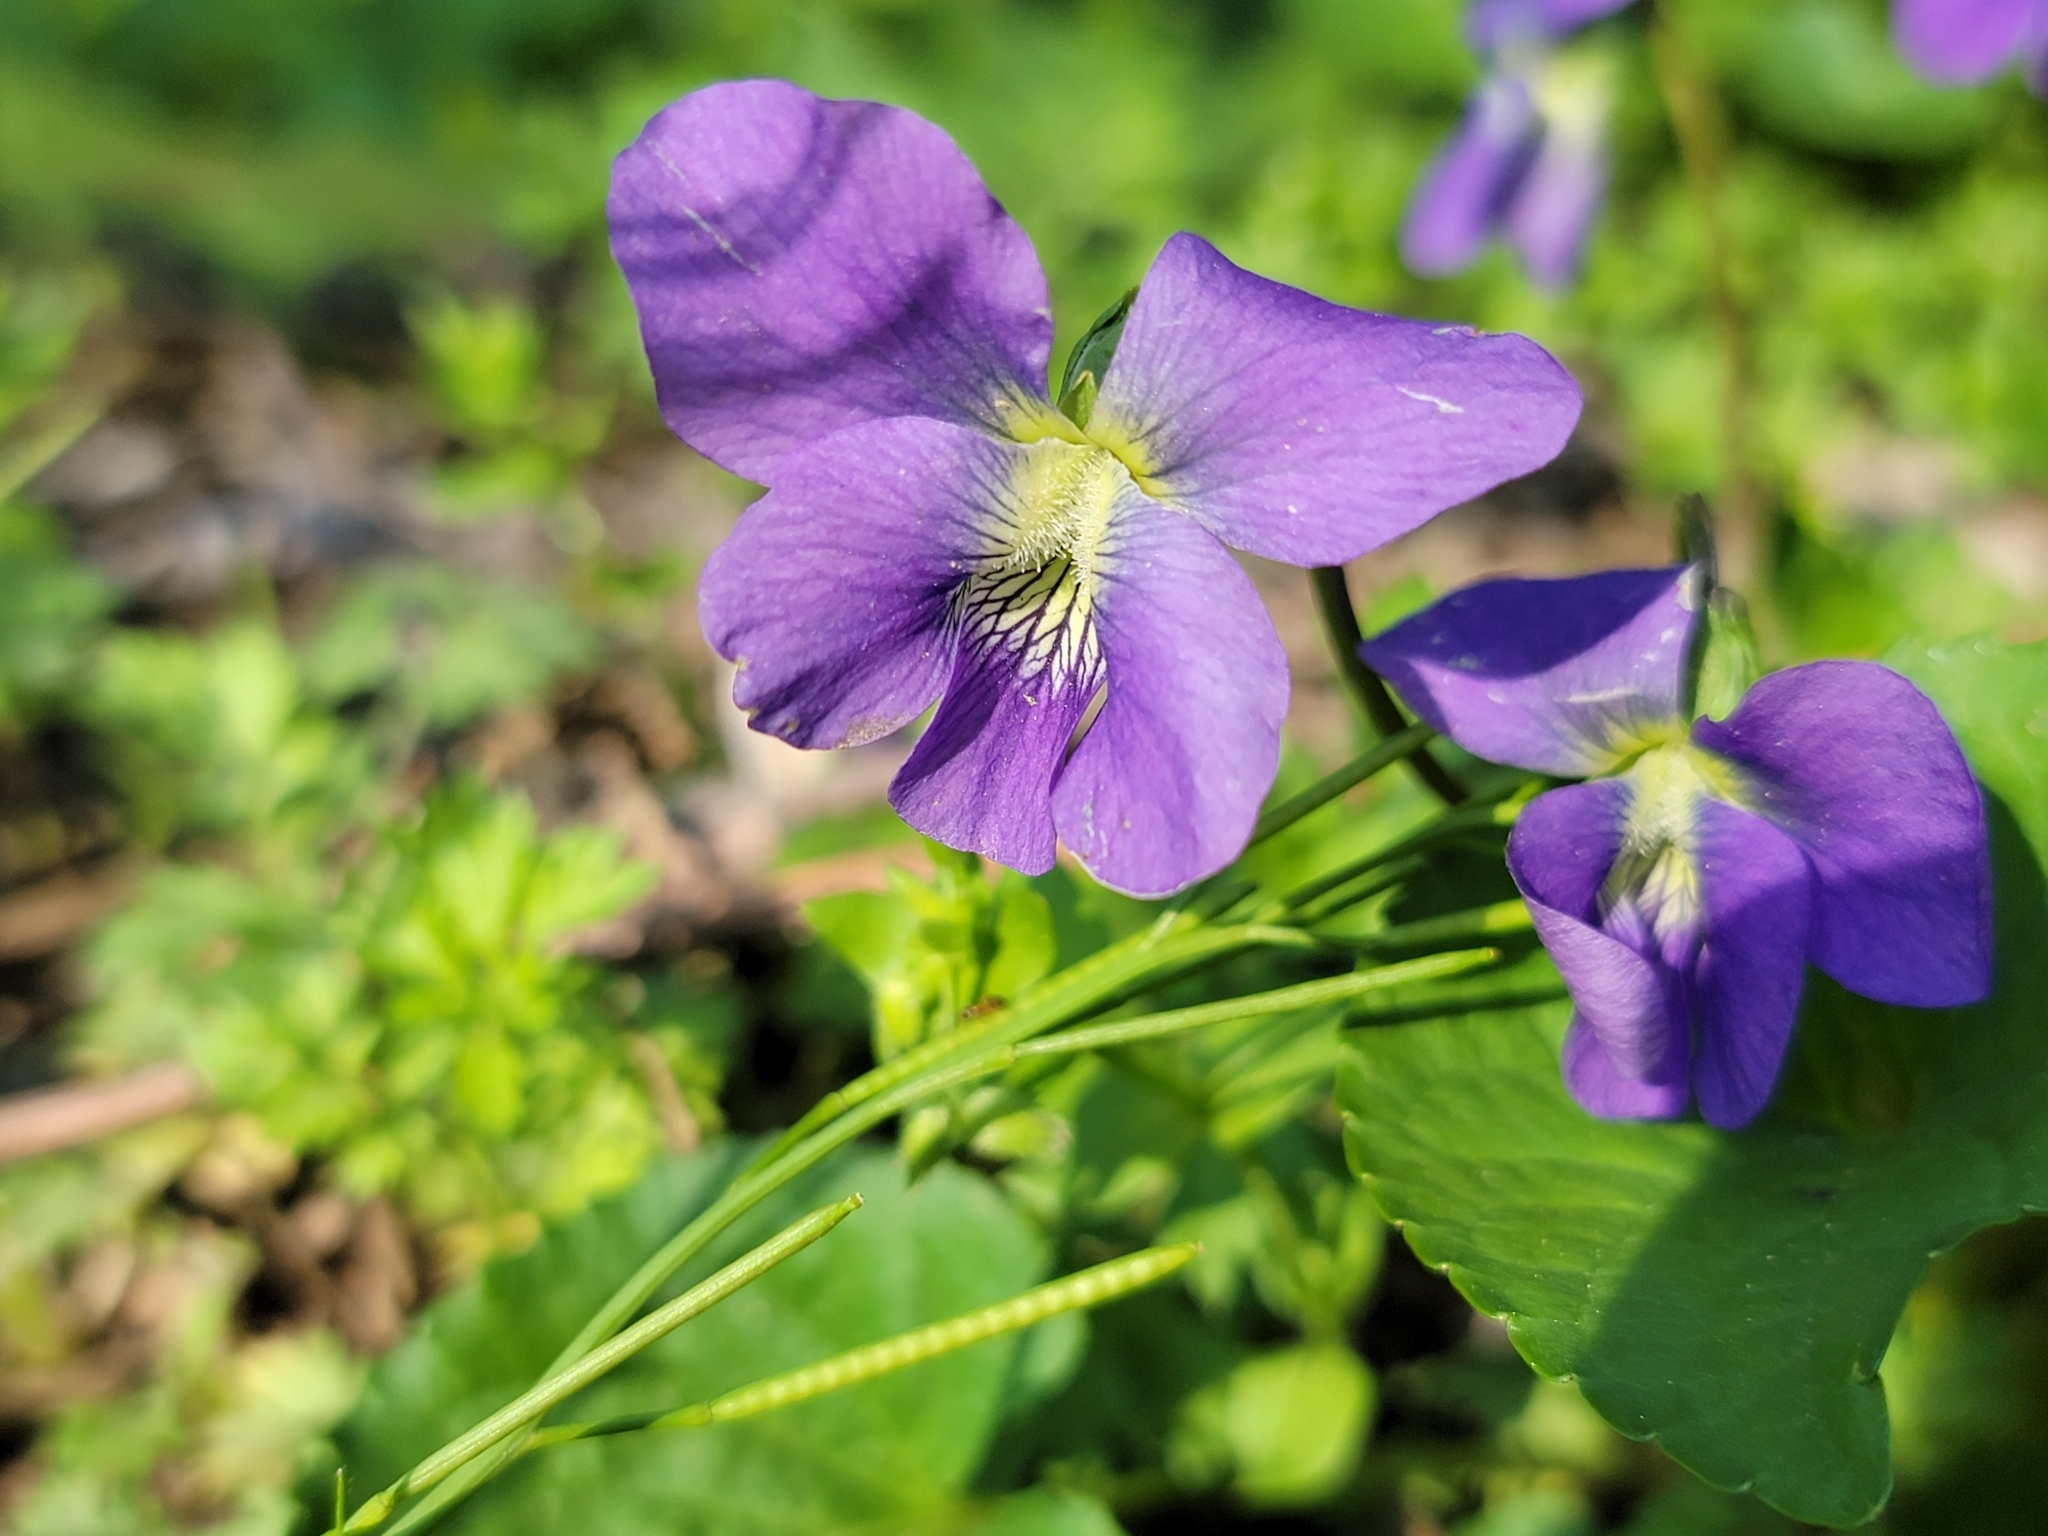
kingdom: Plantae
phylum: Tracheophyta
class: Magnoliopsida
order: Malpighiales
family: Violaceae
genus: Viola
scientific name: Viola sororia
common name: Dooryard violet
